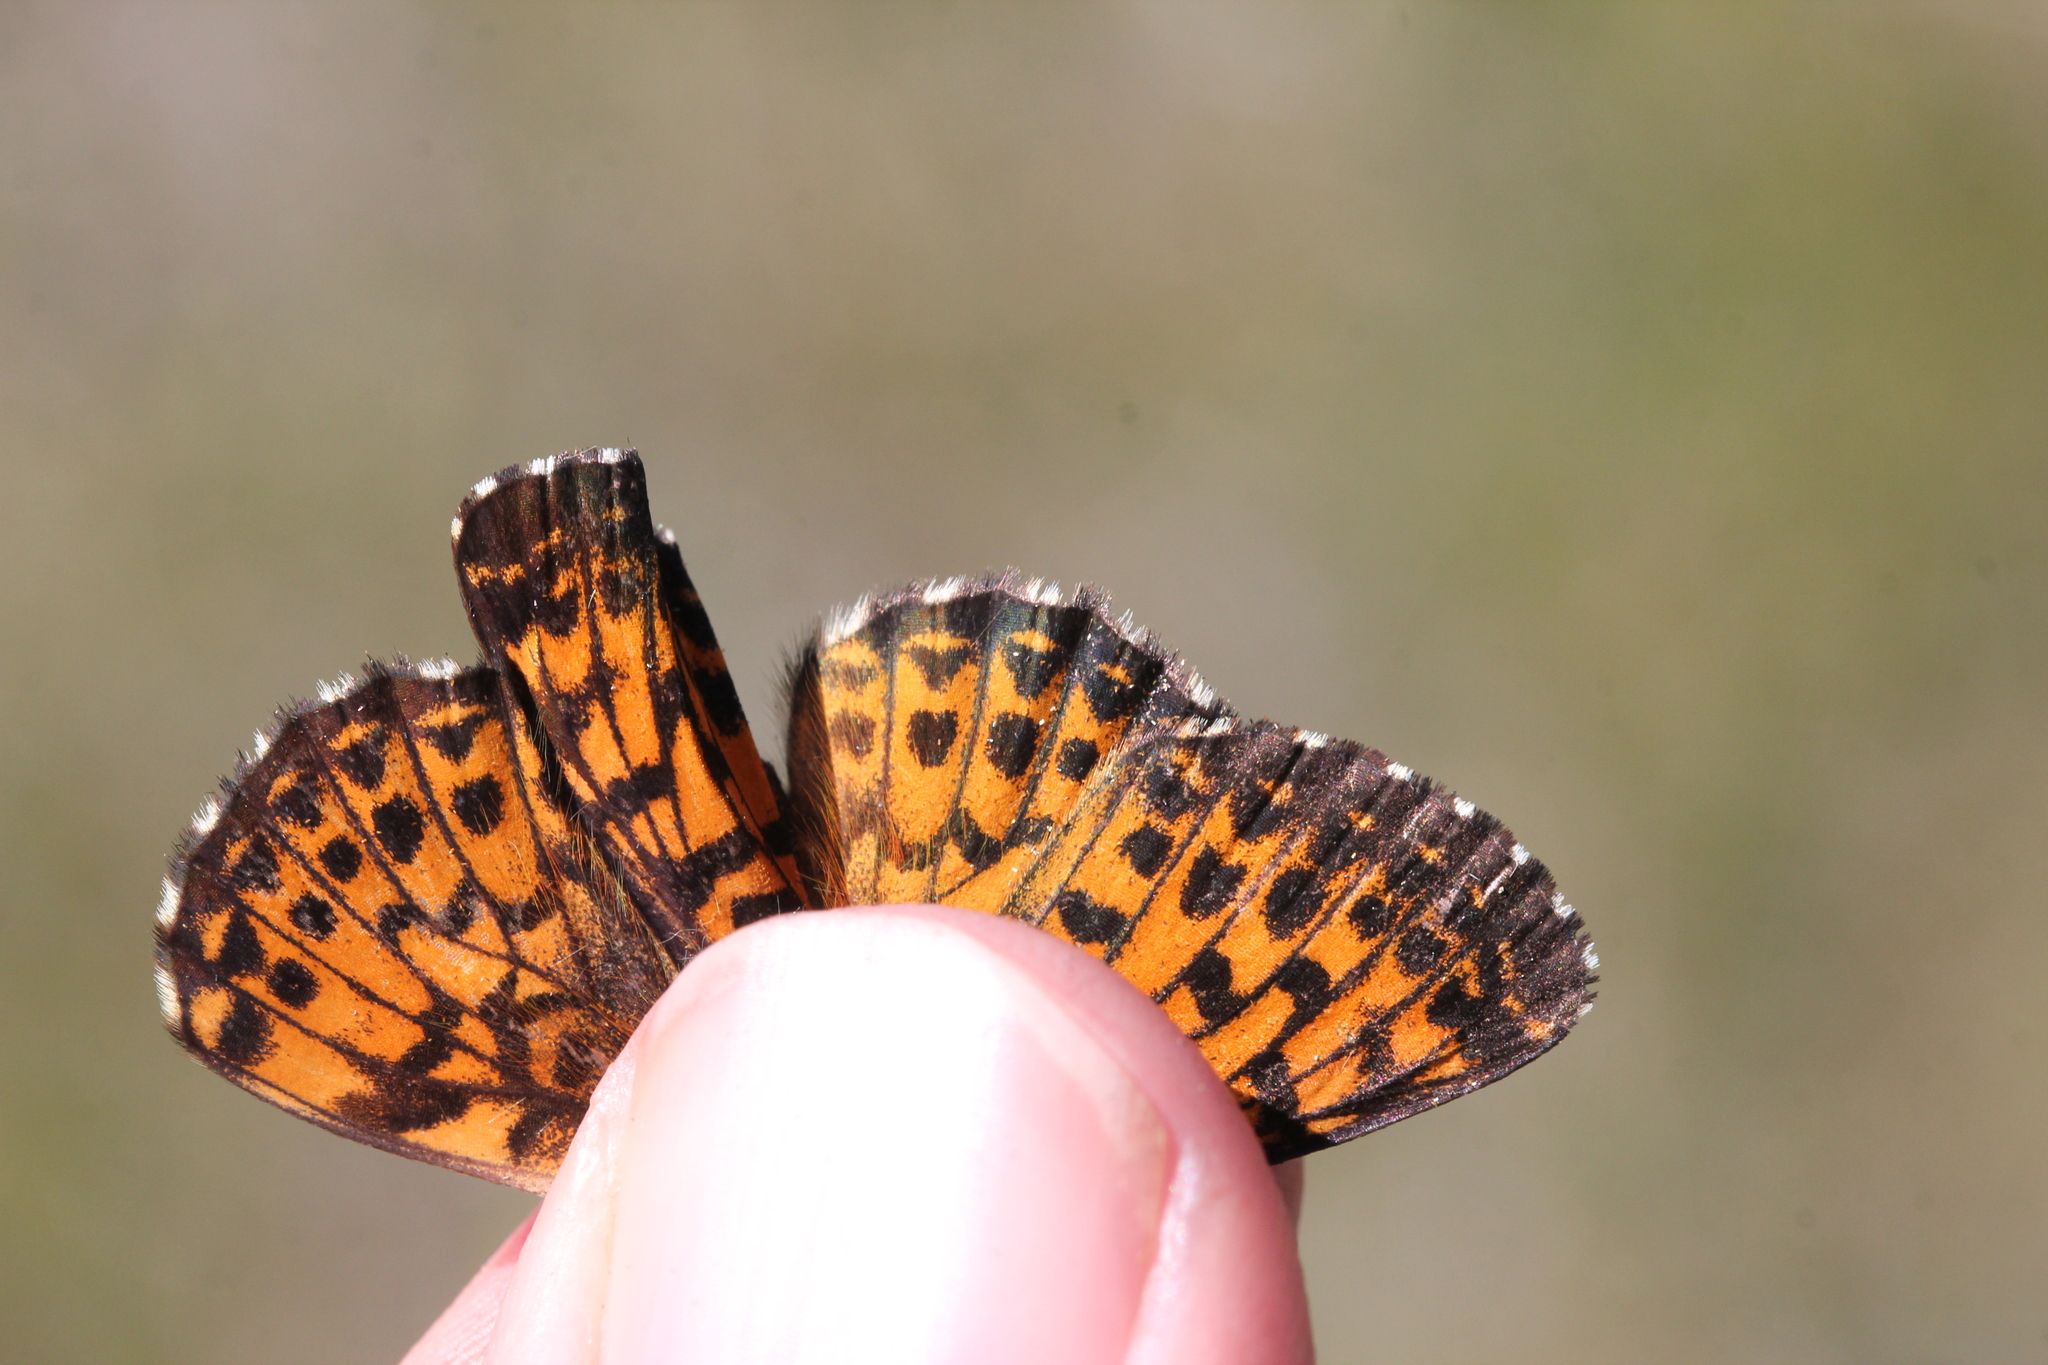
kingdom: Animalia
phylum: Arthropoda
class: Insecta
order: Lepidoptera
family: Nymphalidae
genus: Boloria
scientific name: Boloria chariclea
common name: Arctic fritillary
